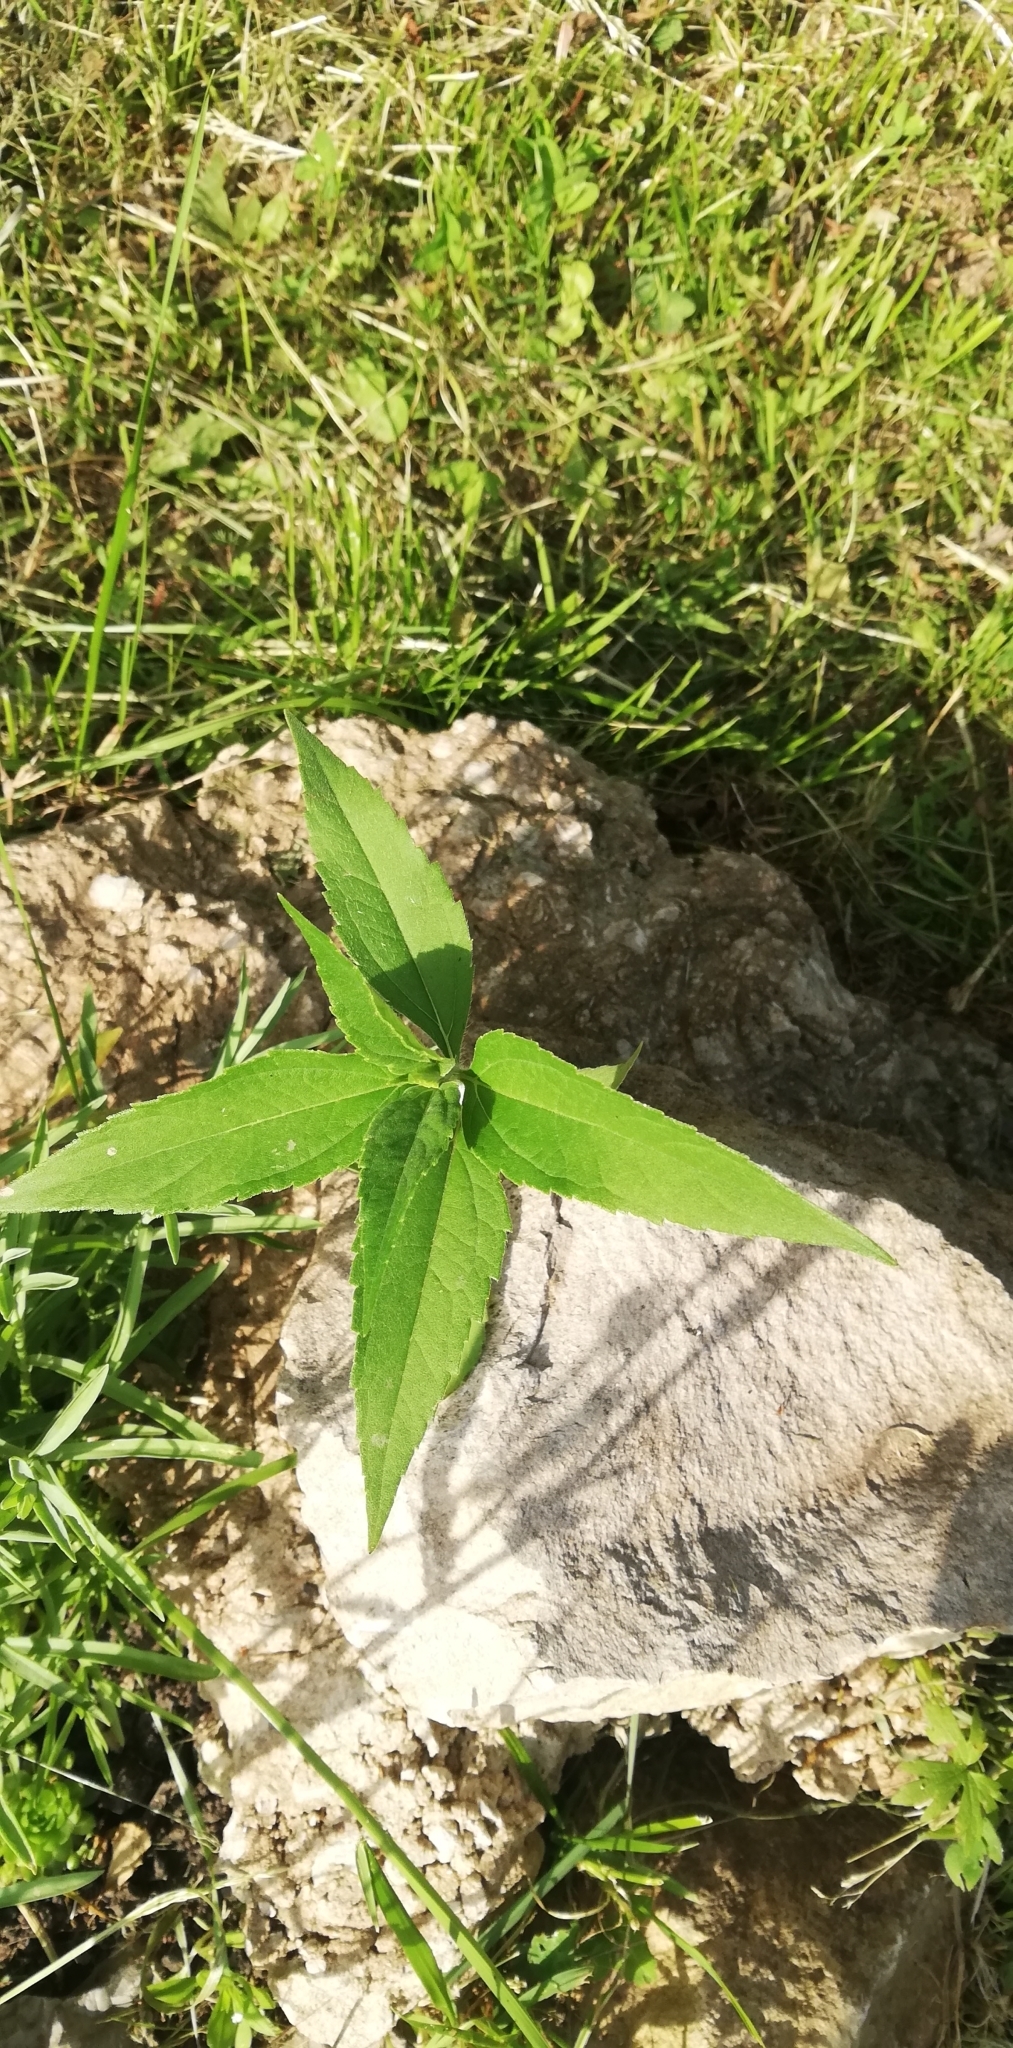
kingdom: Plantae
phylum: Tracheophyta
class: Magnoliopsida
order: Asterales
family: Asteraceae
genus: Helianthus
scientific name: Helianthus tuberosus
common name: Jerusalem artichoke
